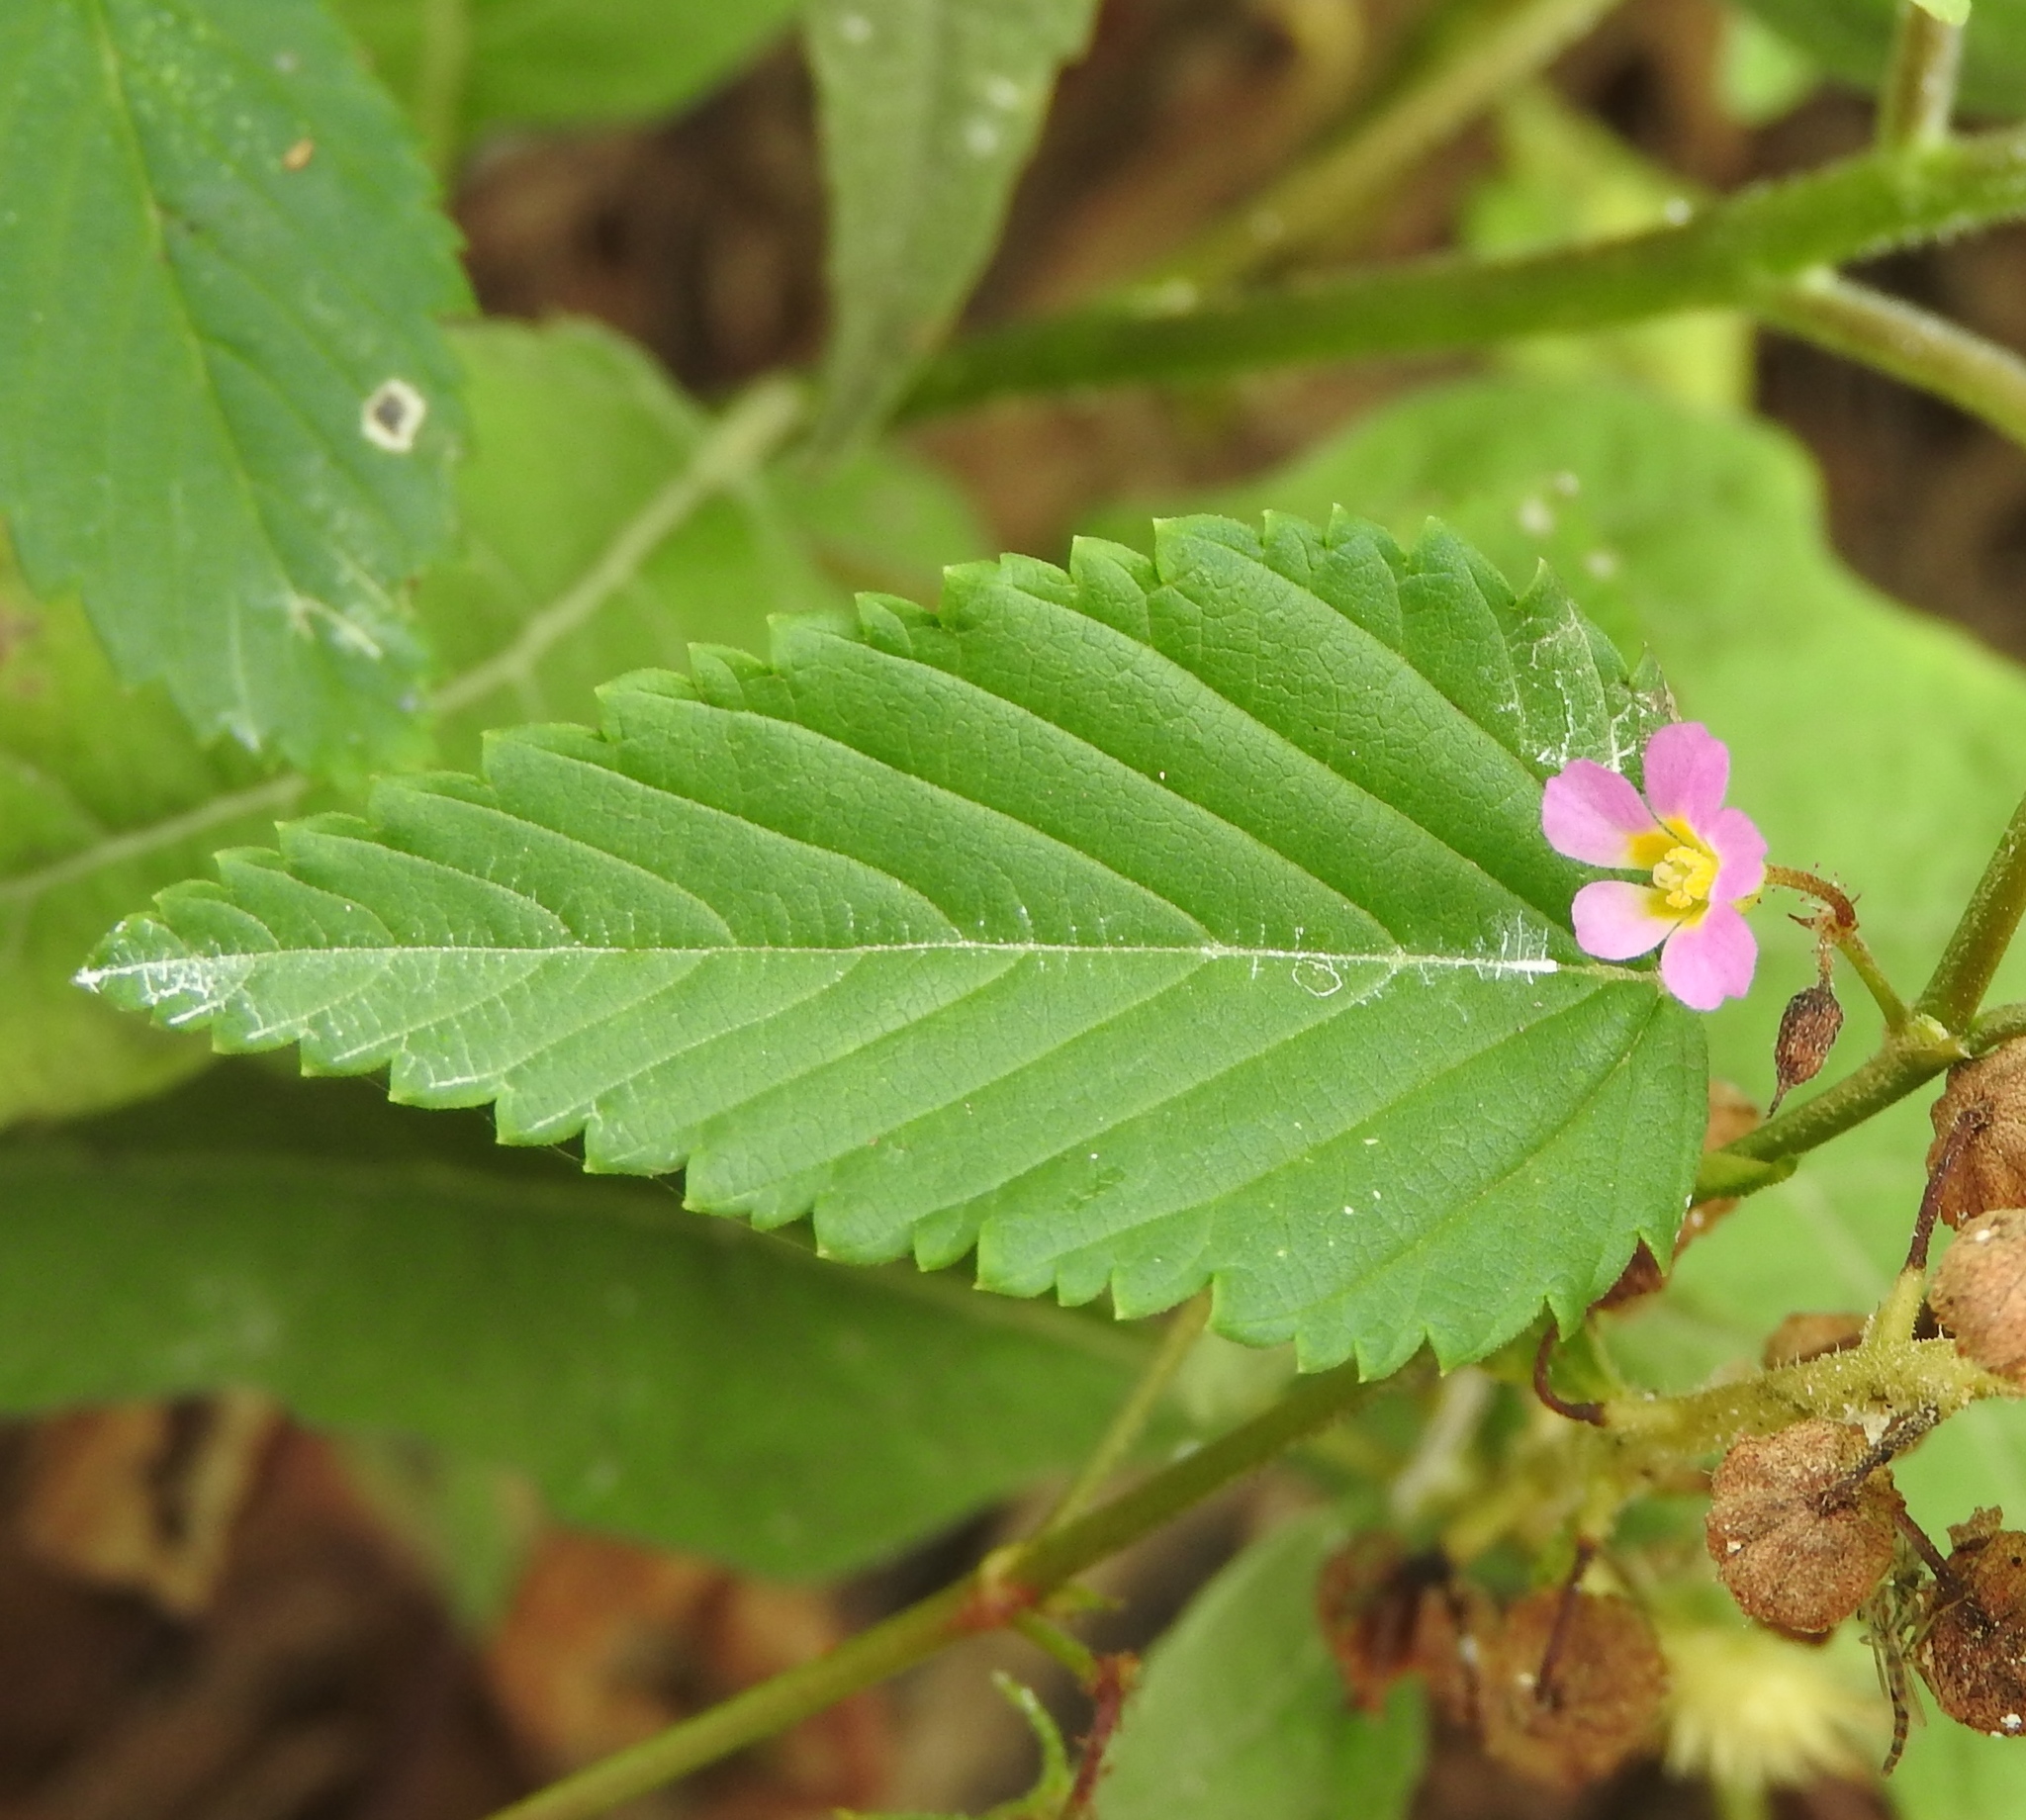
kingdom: Plantae
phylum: Tracheophyta
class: Magnoliopsida
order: Malvales
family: Malvaceae
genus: Melochia
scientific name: Melochia pyramidata
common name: Pyramidflower
